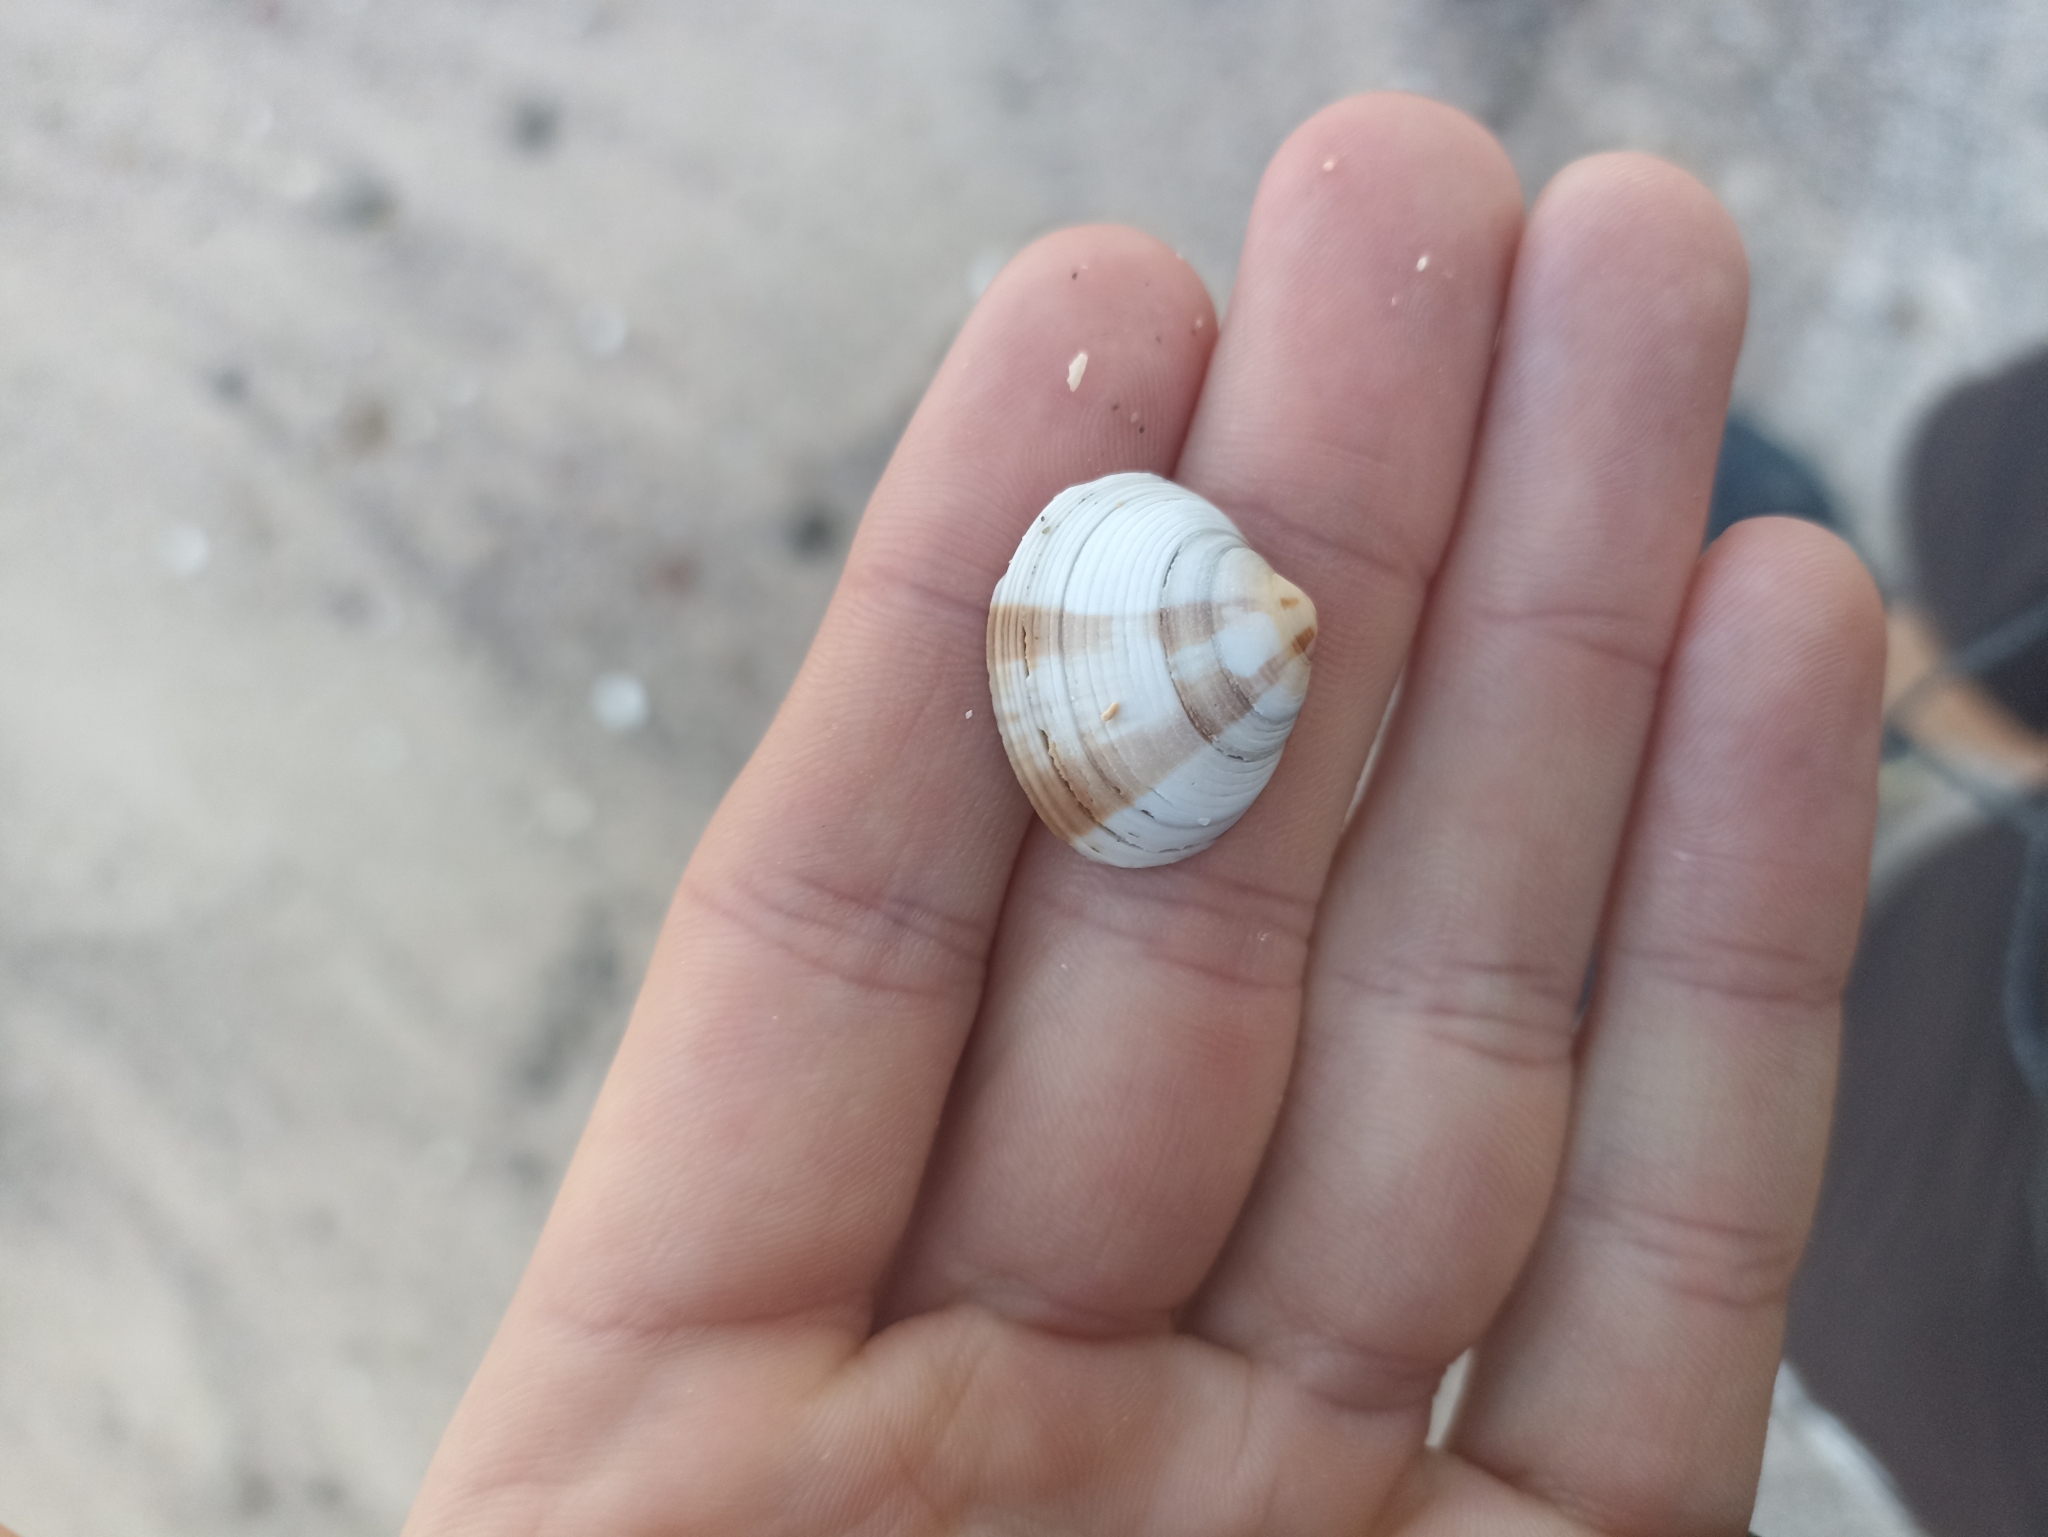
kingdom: Animalia
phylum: Mollusca
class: Bivalvia
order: Venerida
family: Veneridae
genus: Tawera
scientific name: Tawera spissa
